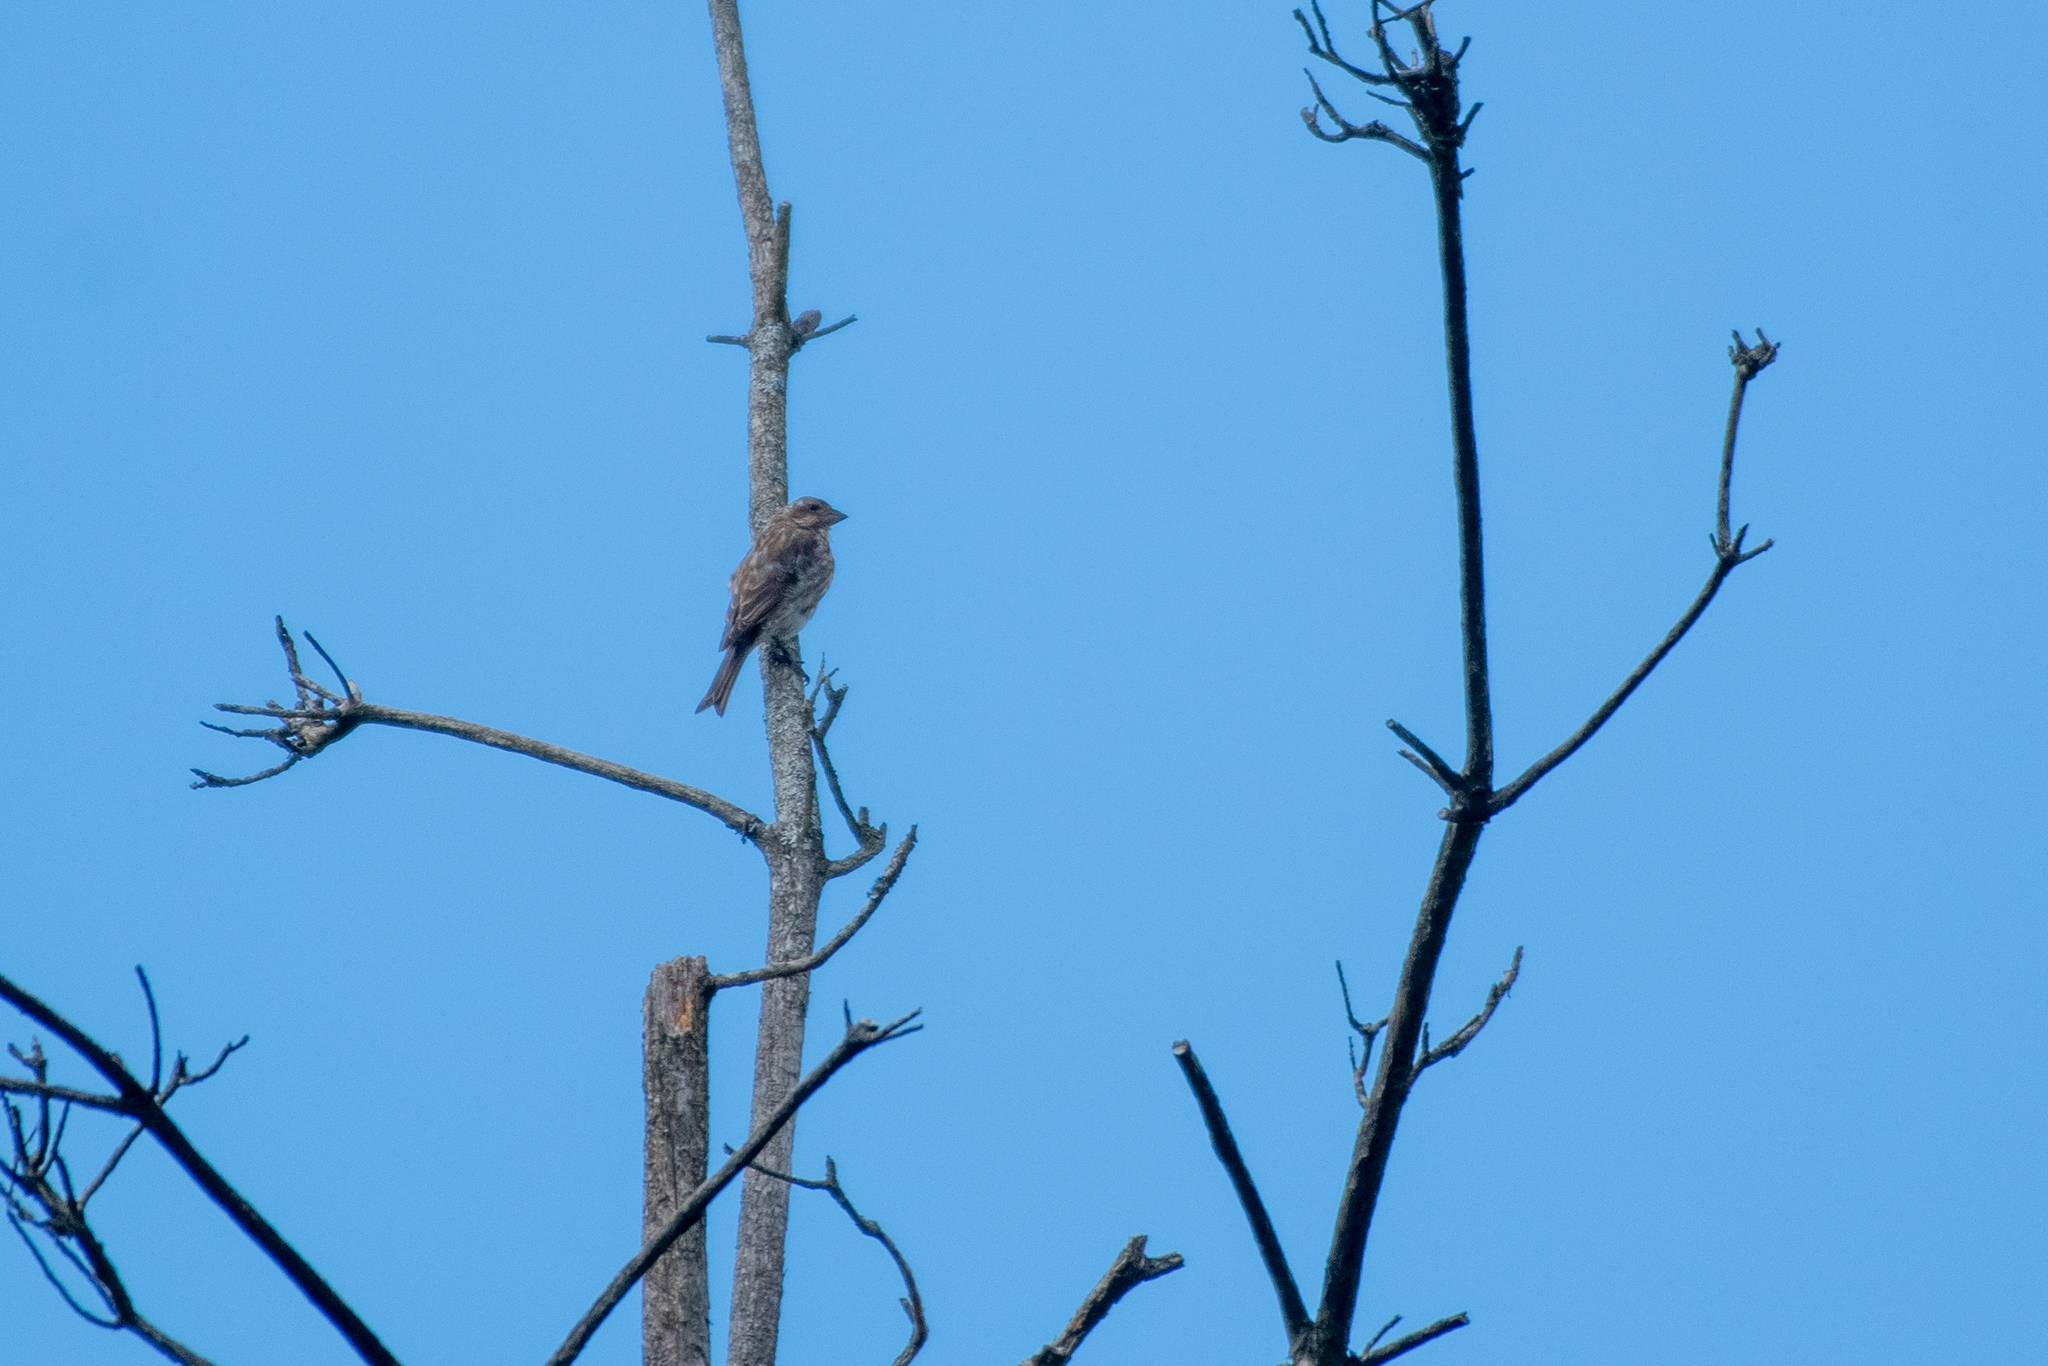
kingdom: Animalia
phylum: Chordata
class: Aves
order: Passeriformes
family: Fringillidae
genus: Haemorhous
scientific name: Haemorhous purpureus
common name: Purple finch
